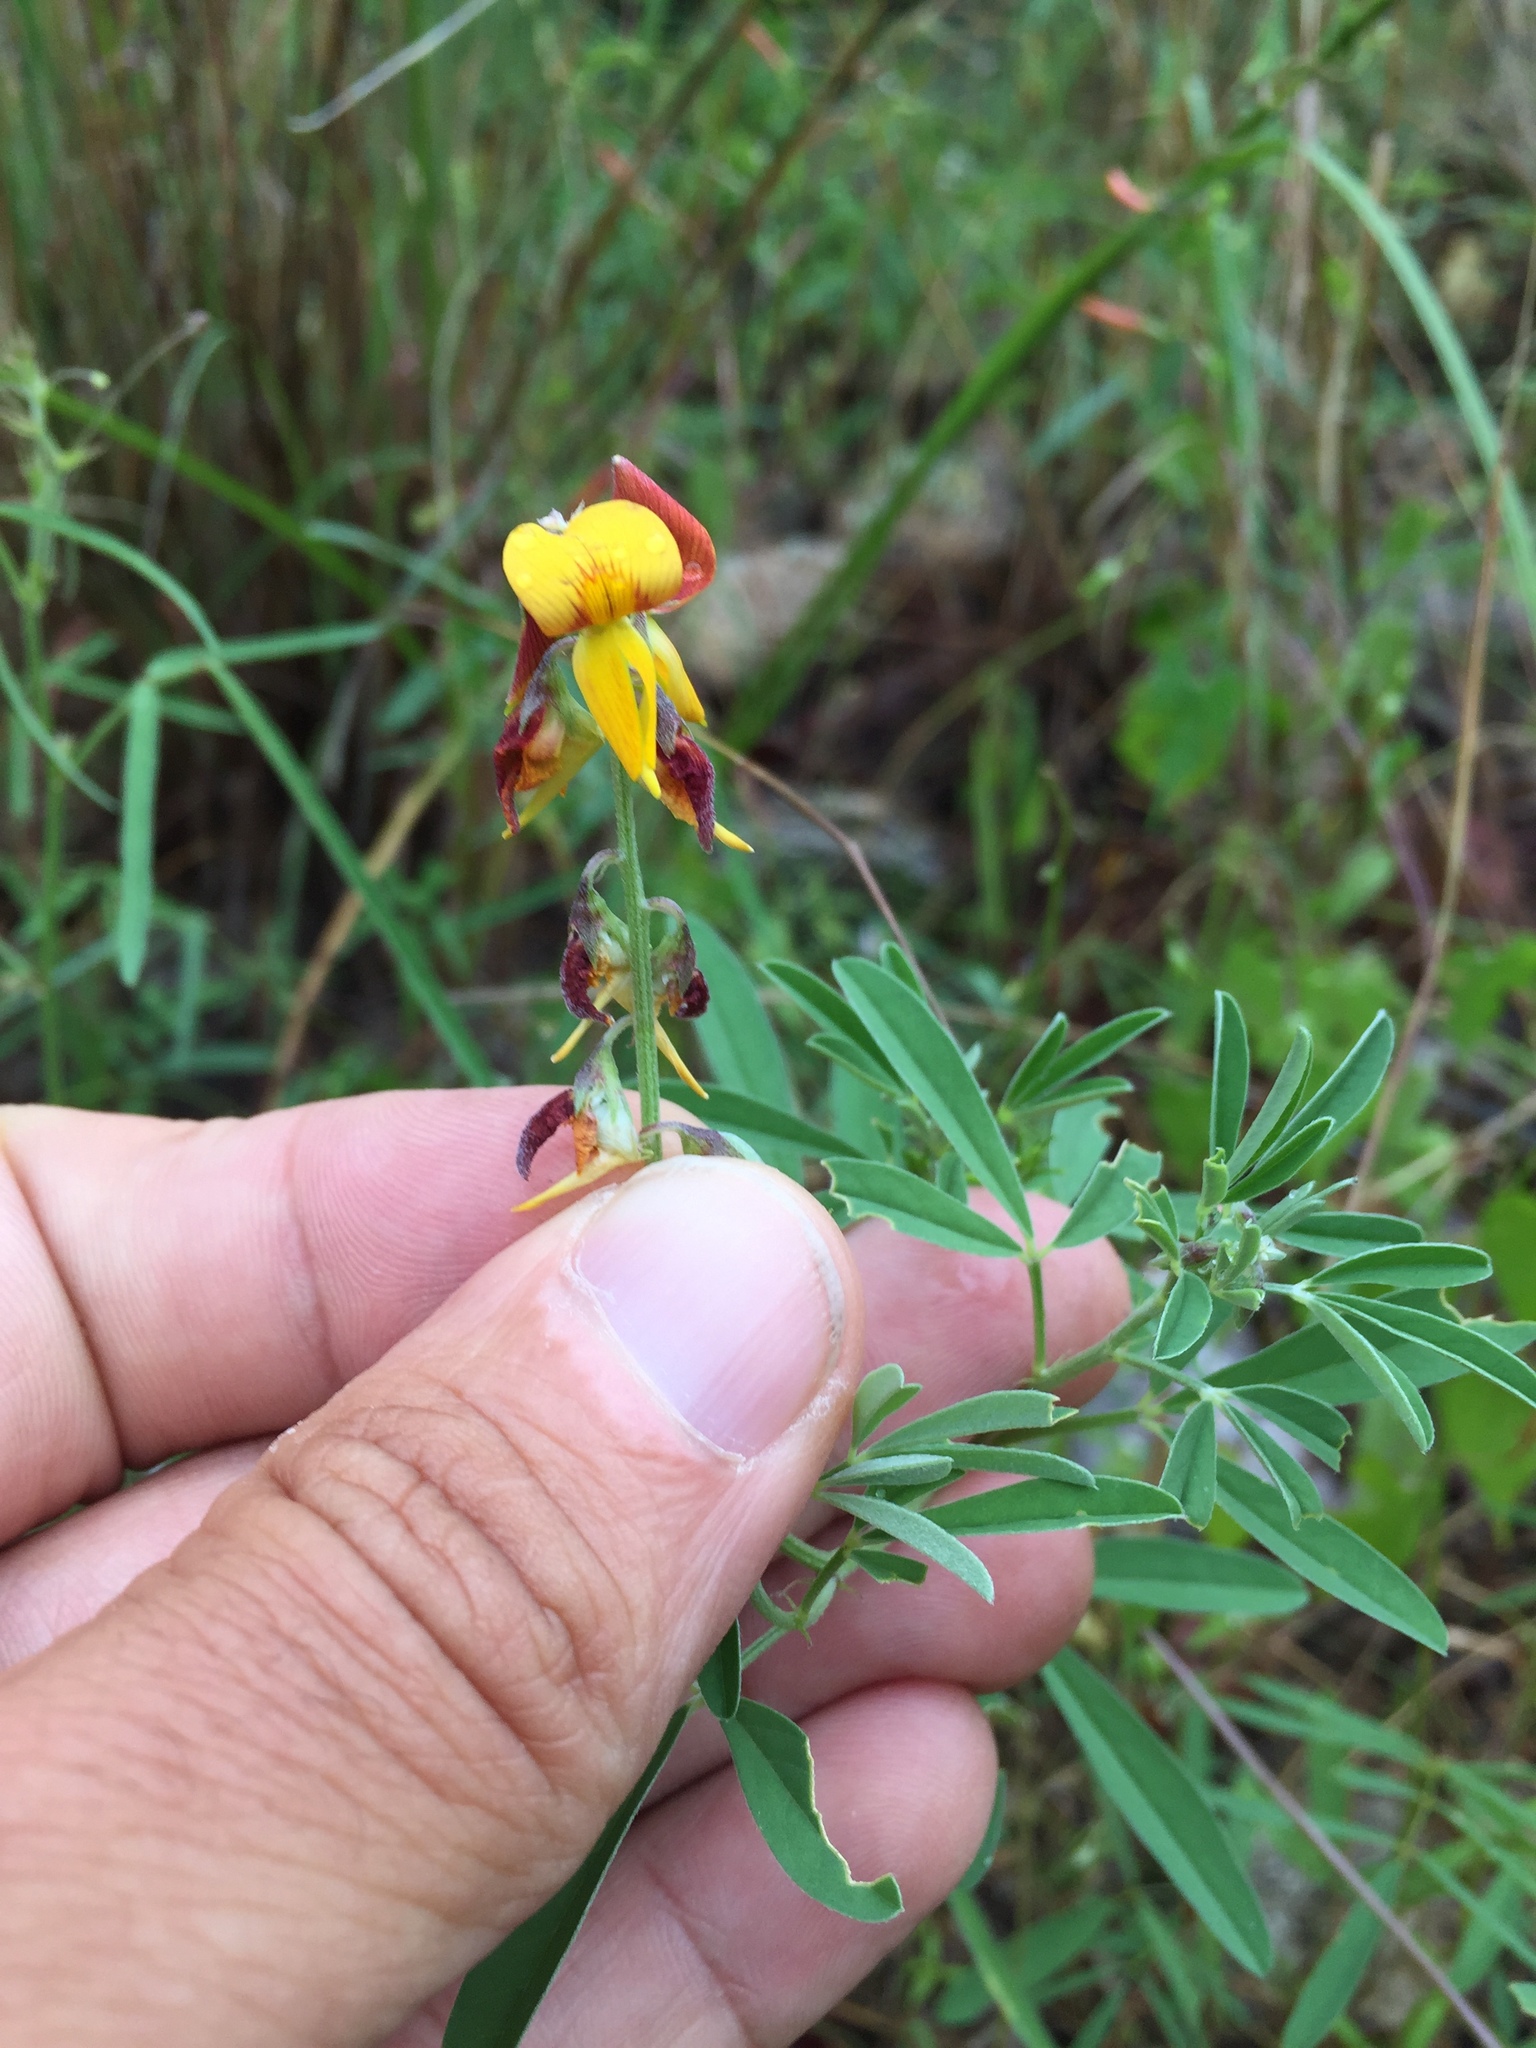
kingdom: Plantae
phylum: Tracheophyta
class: Magnoliopsida
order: Fabales
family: Fabaceae
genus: Crotalaria
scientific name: Crotalaria pumila
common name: Low rattlebox
